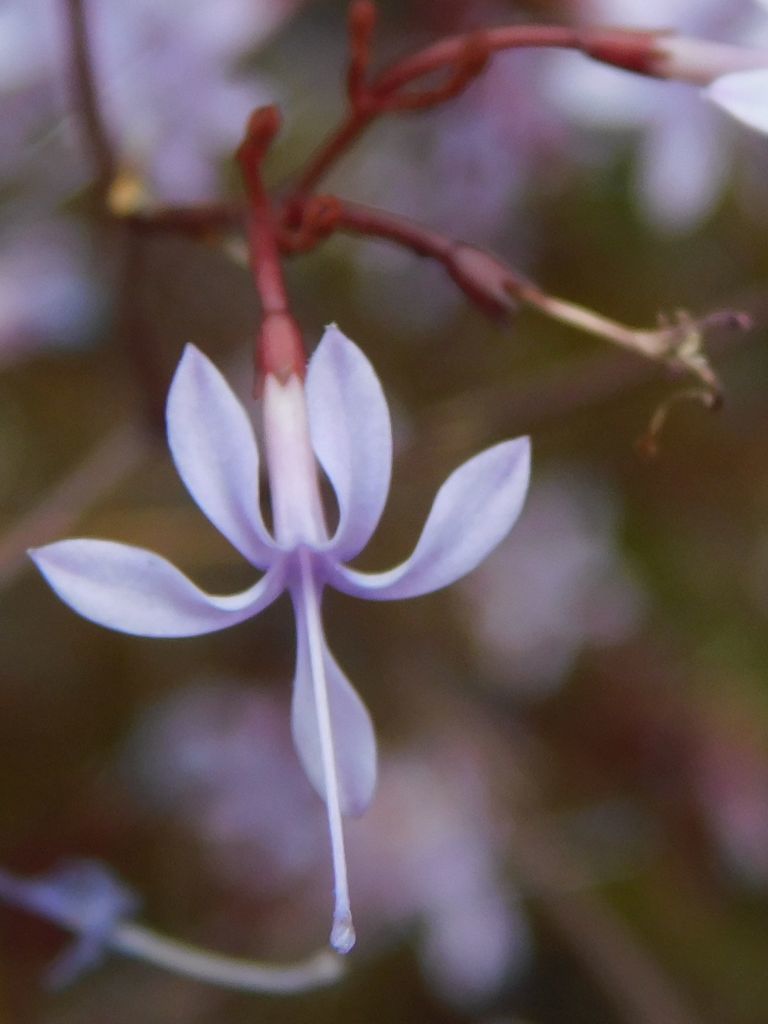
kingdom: Plantae
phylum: Tracheophyta
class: Magnoliopsida
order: Asterales
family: Campanulaceae
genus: Prismatocarpus
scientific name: Prismatocarpus diffusus
